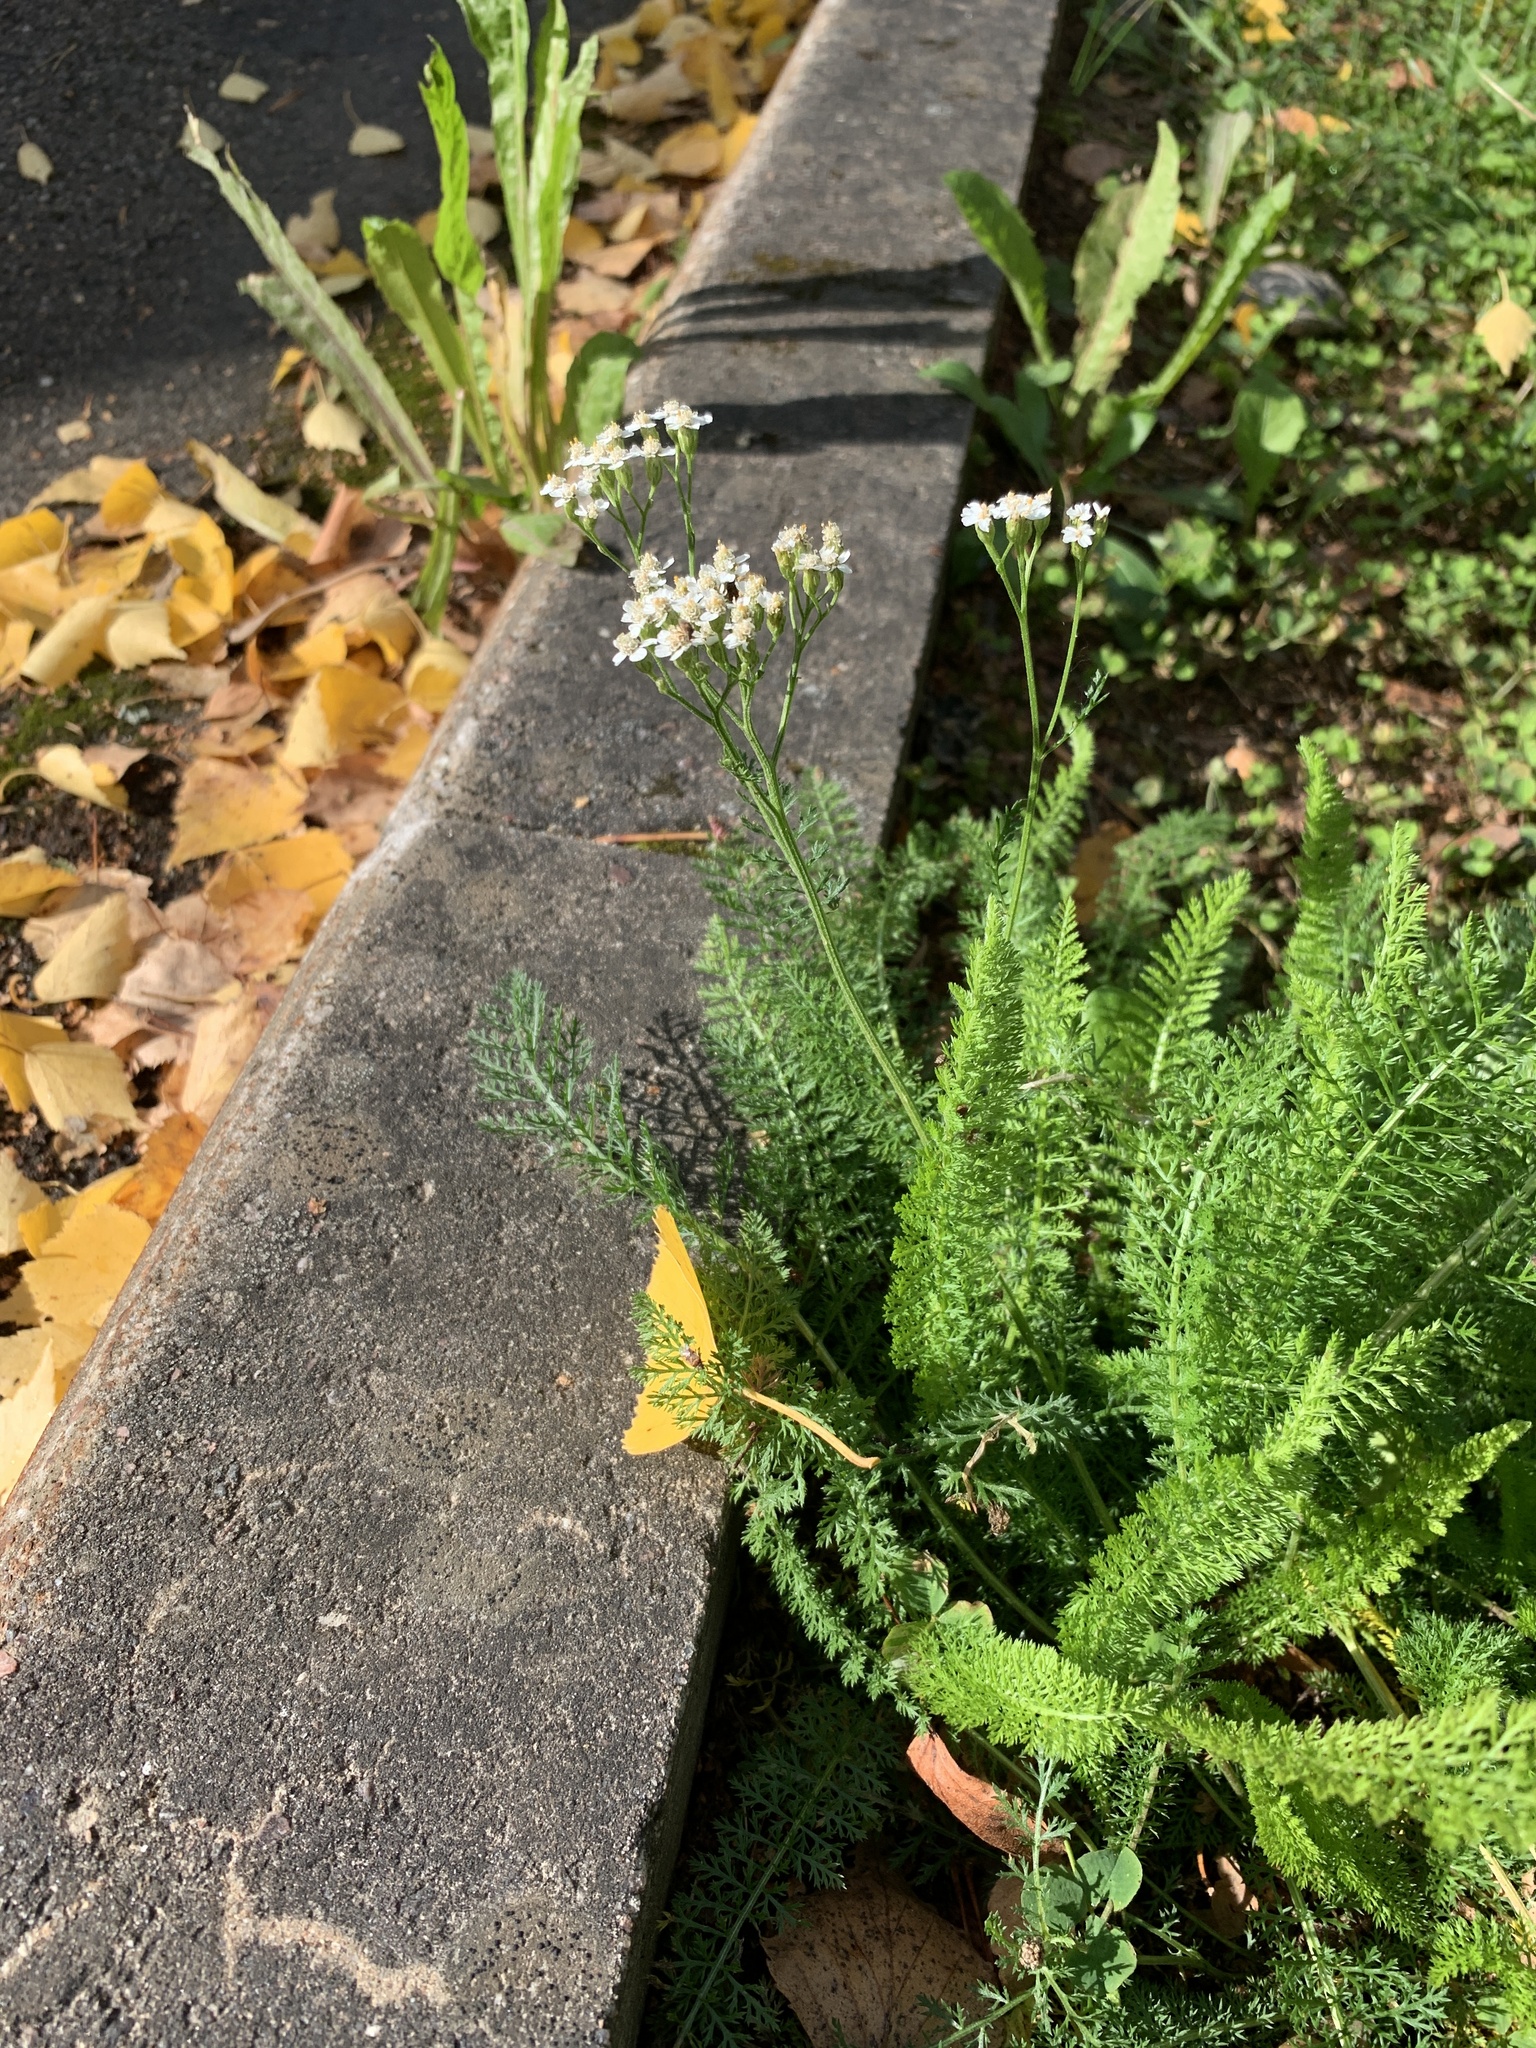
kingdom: Plantae
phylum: Tracheophyta
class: Magnoliopsida
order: Asterales
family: Asteraceae
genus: Achillea
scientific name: Achillea millefolium
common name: Yarrow
